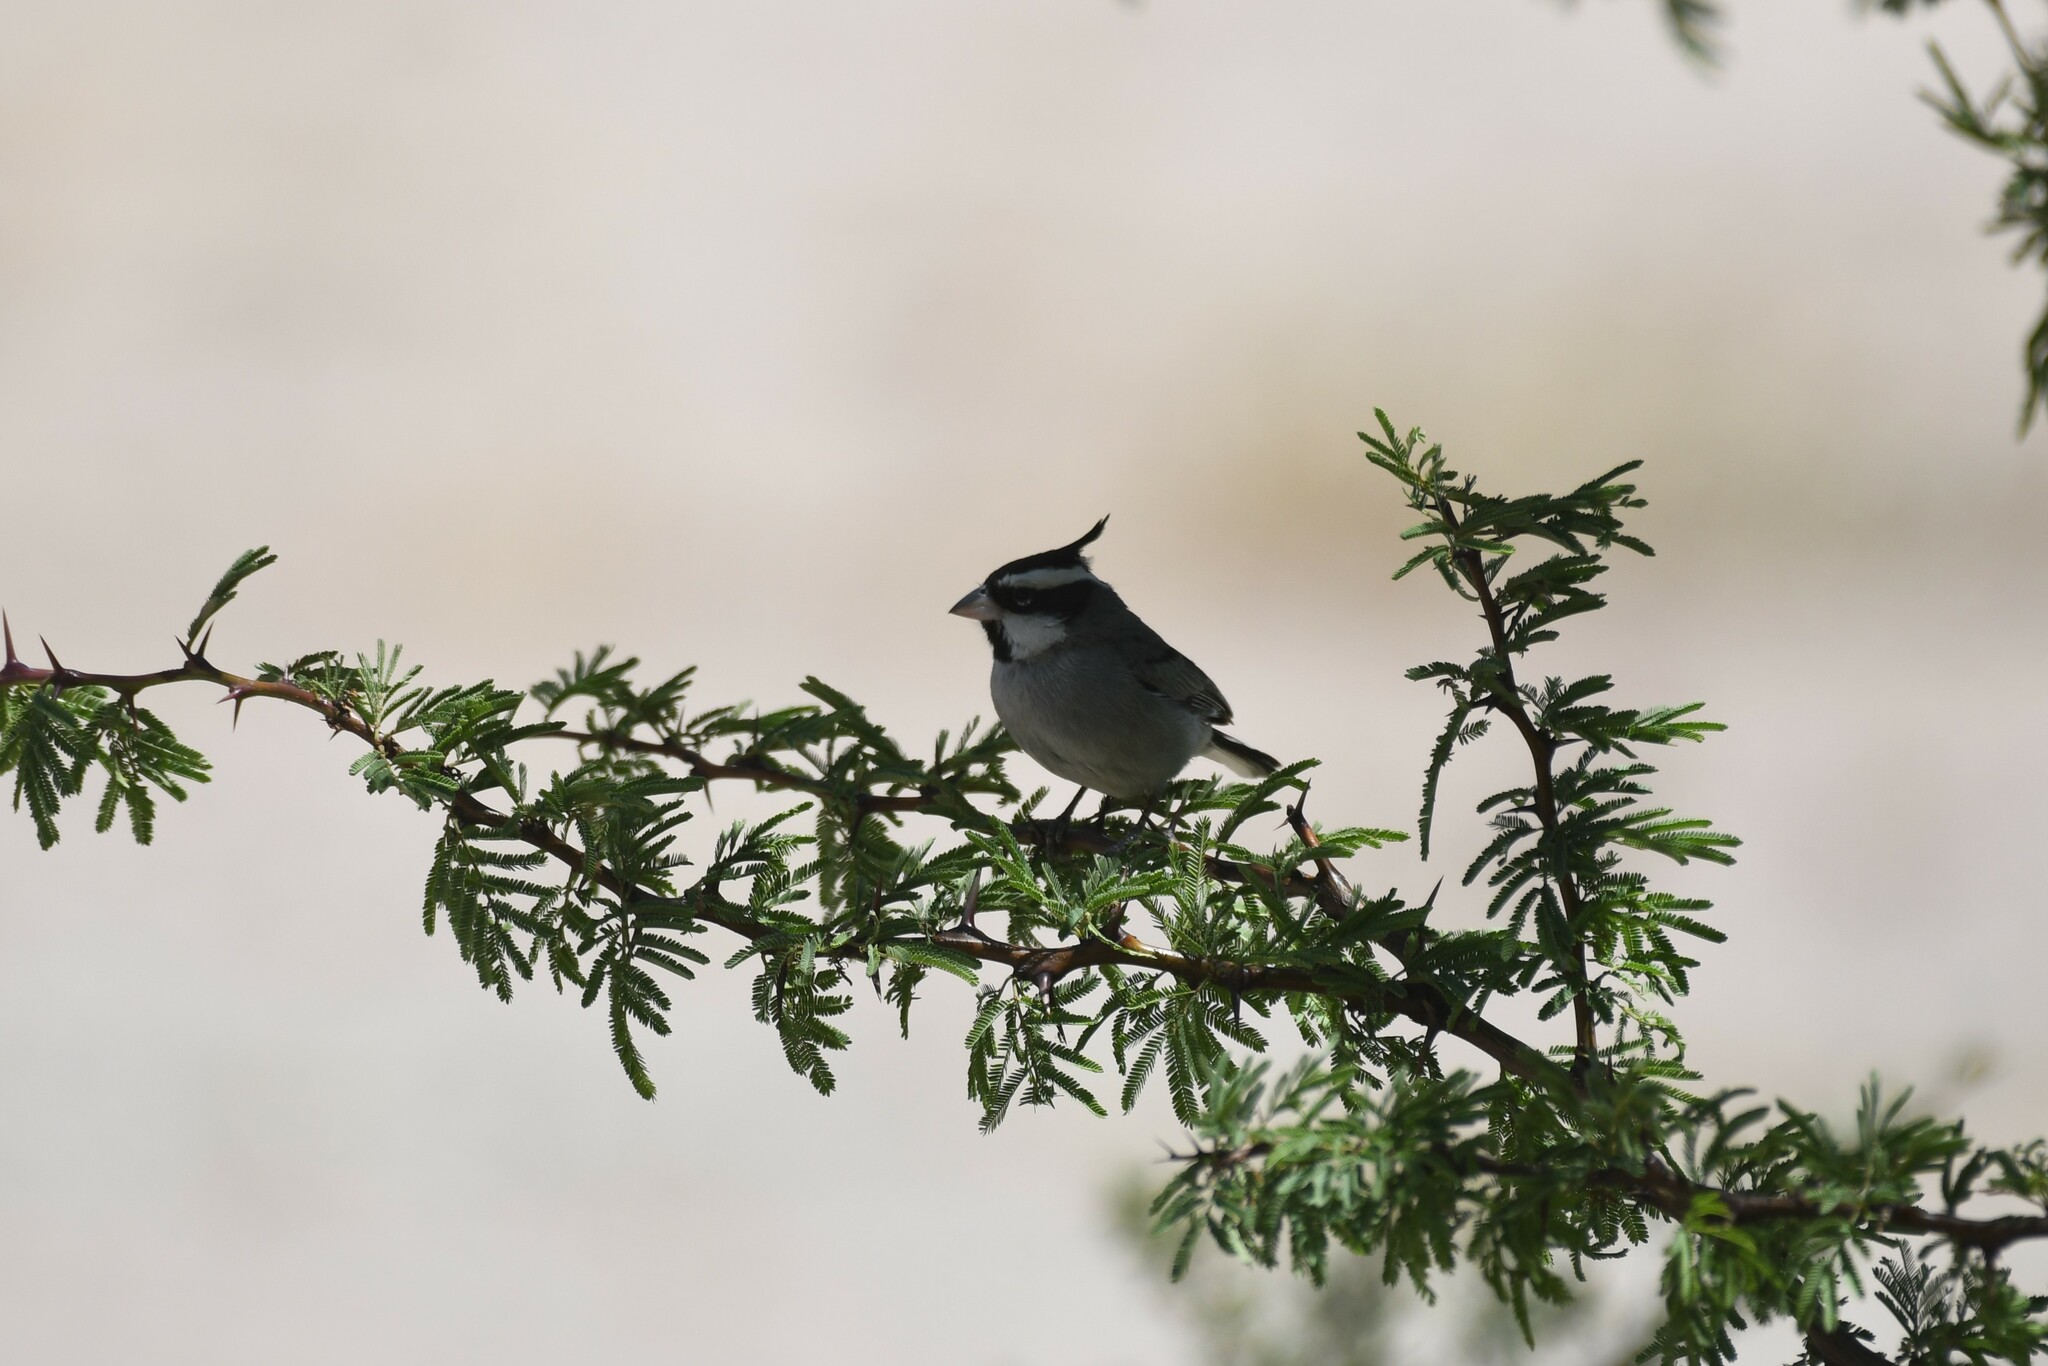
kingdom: Animalia
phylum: Chordata
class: Aves
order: Passeriformes
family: Thraupidae
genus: Lophospingus
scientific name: Lophospingus pusillus
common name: Black-crested finch
